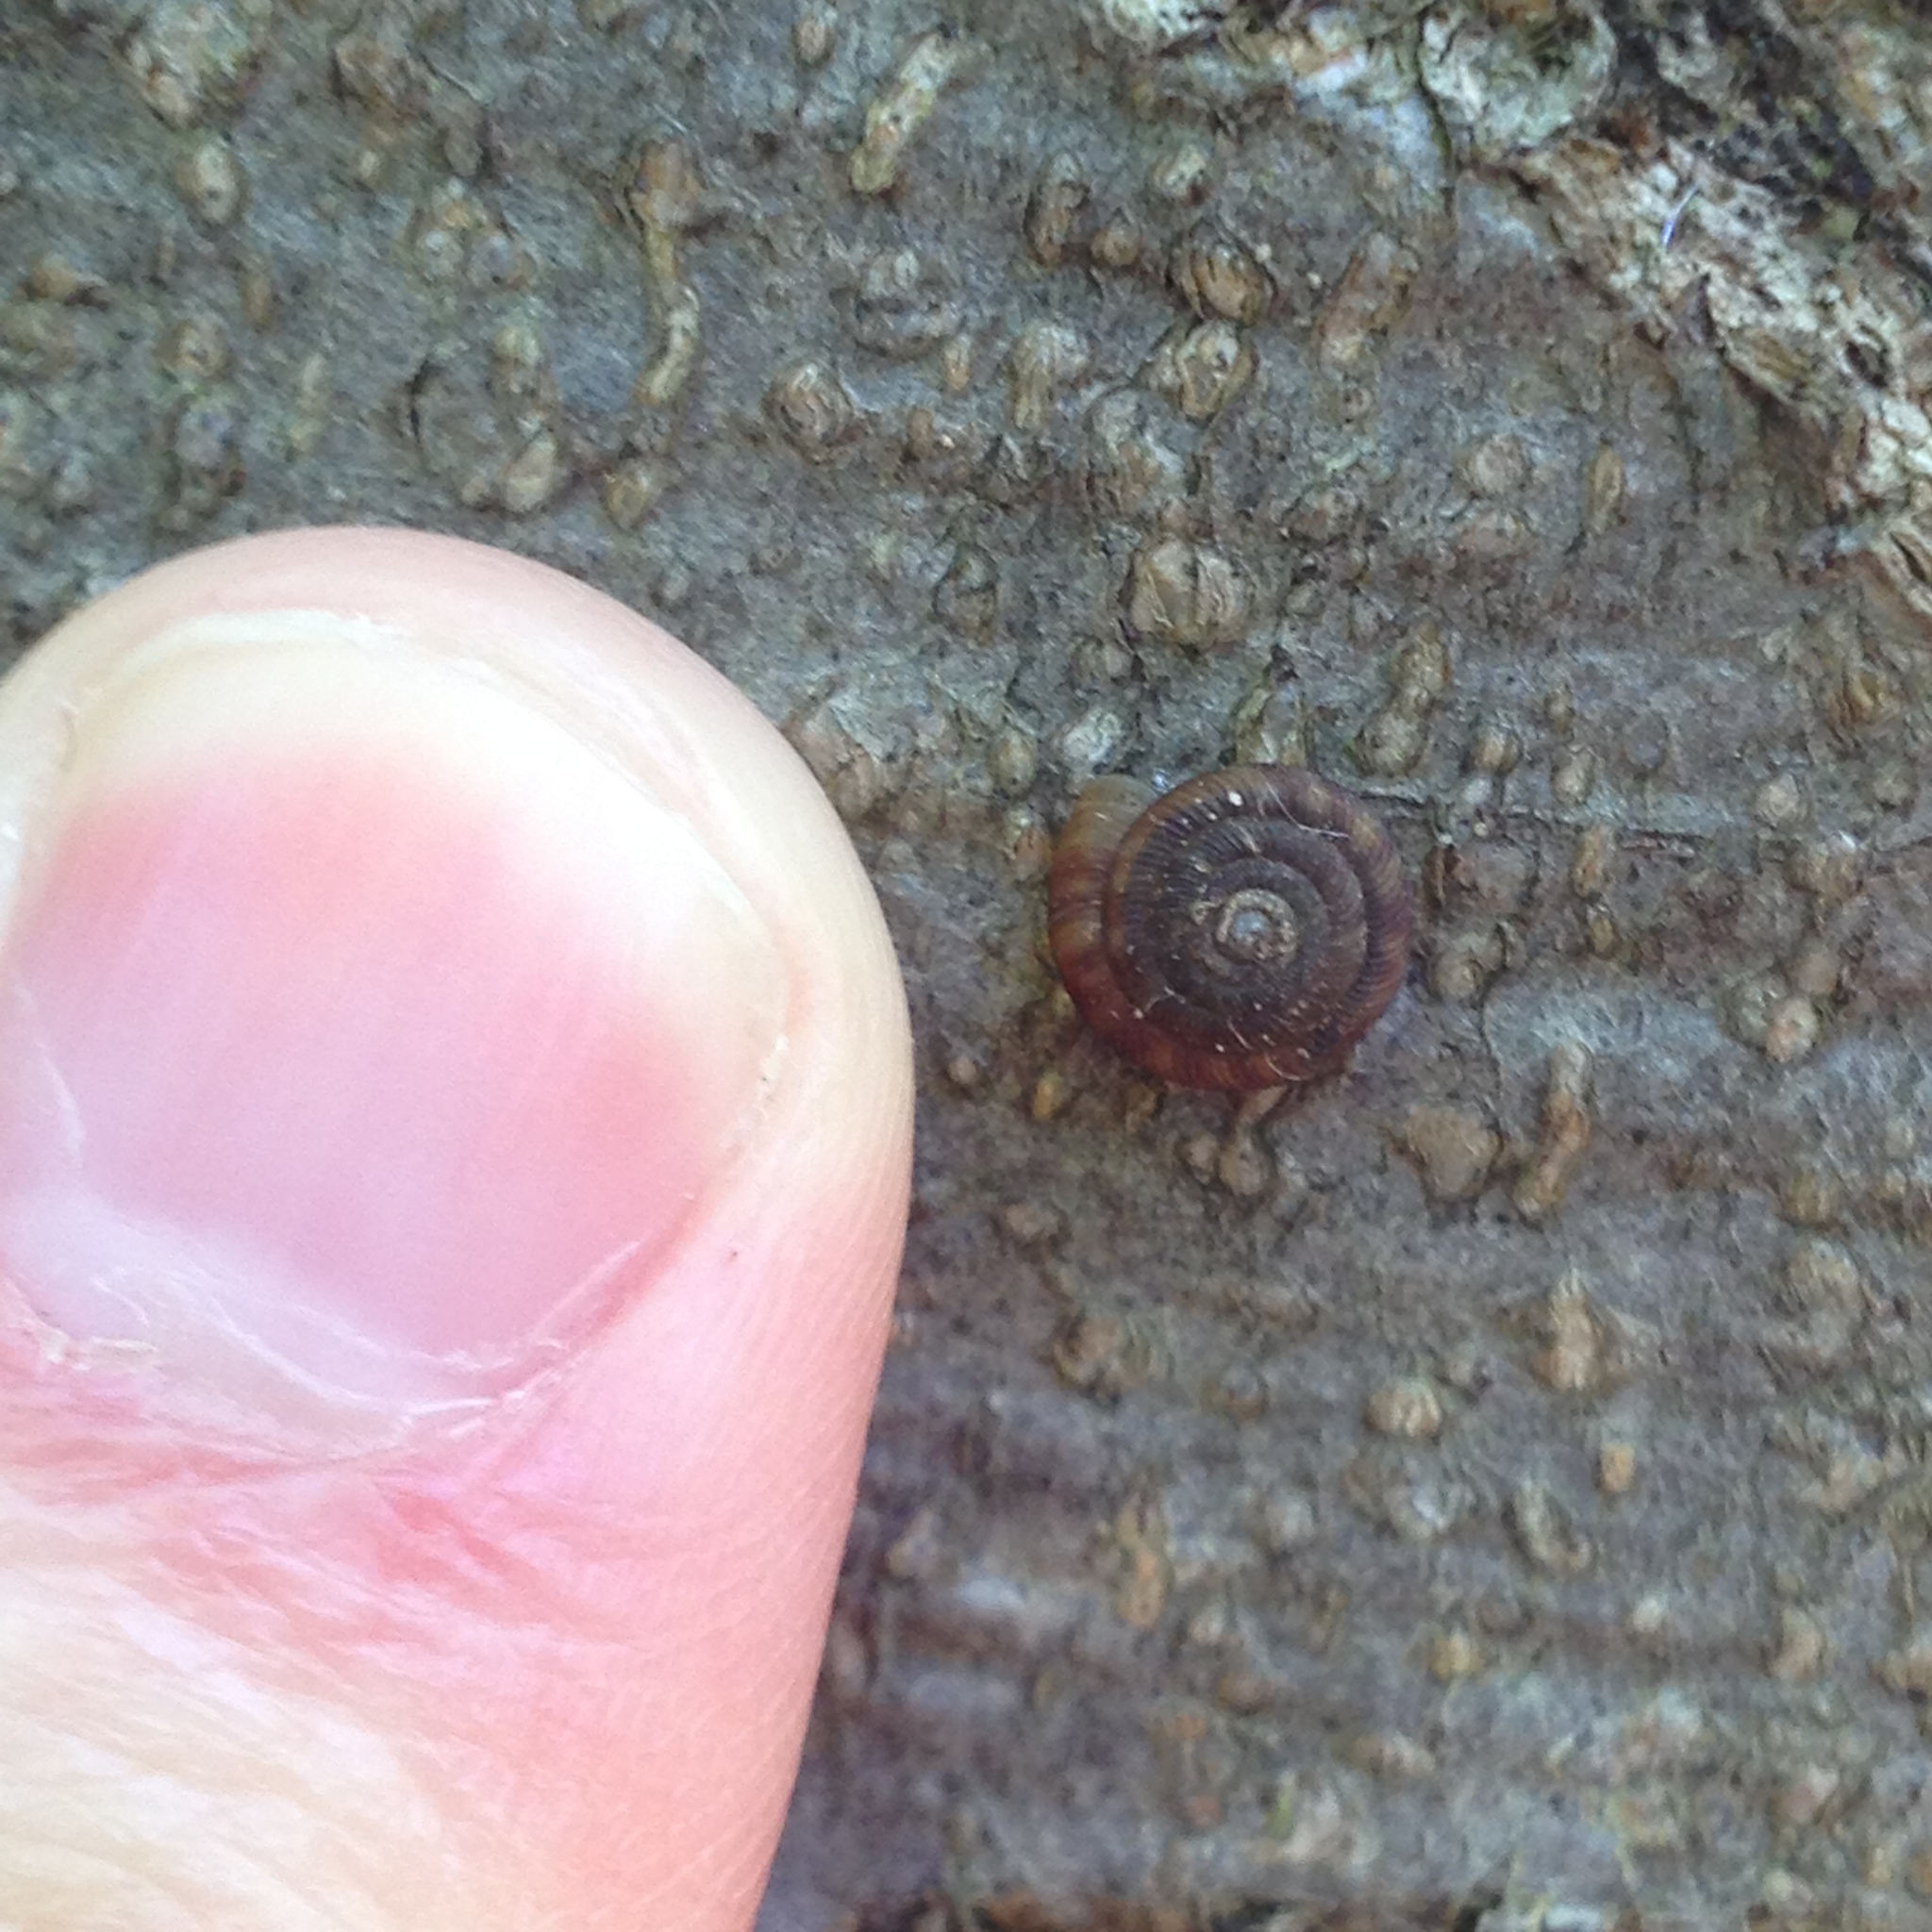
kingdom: Animalia
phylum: Mollusca
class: Gastropoda
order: Stylommatophora
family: Discidae
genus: Discus
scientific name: Discus rotundatus
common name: Rounded snail
